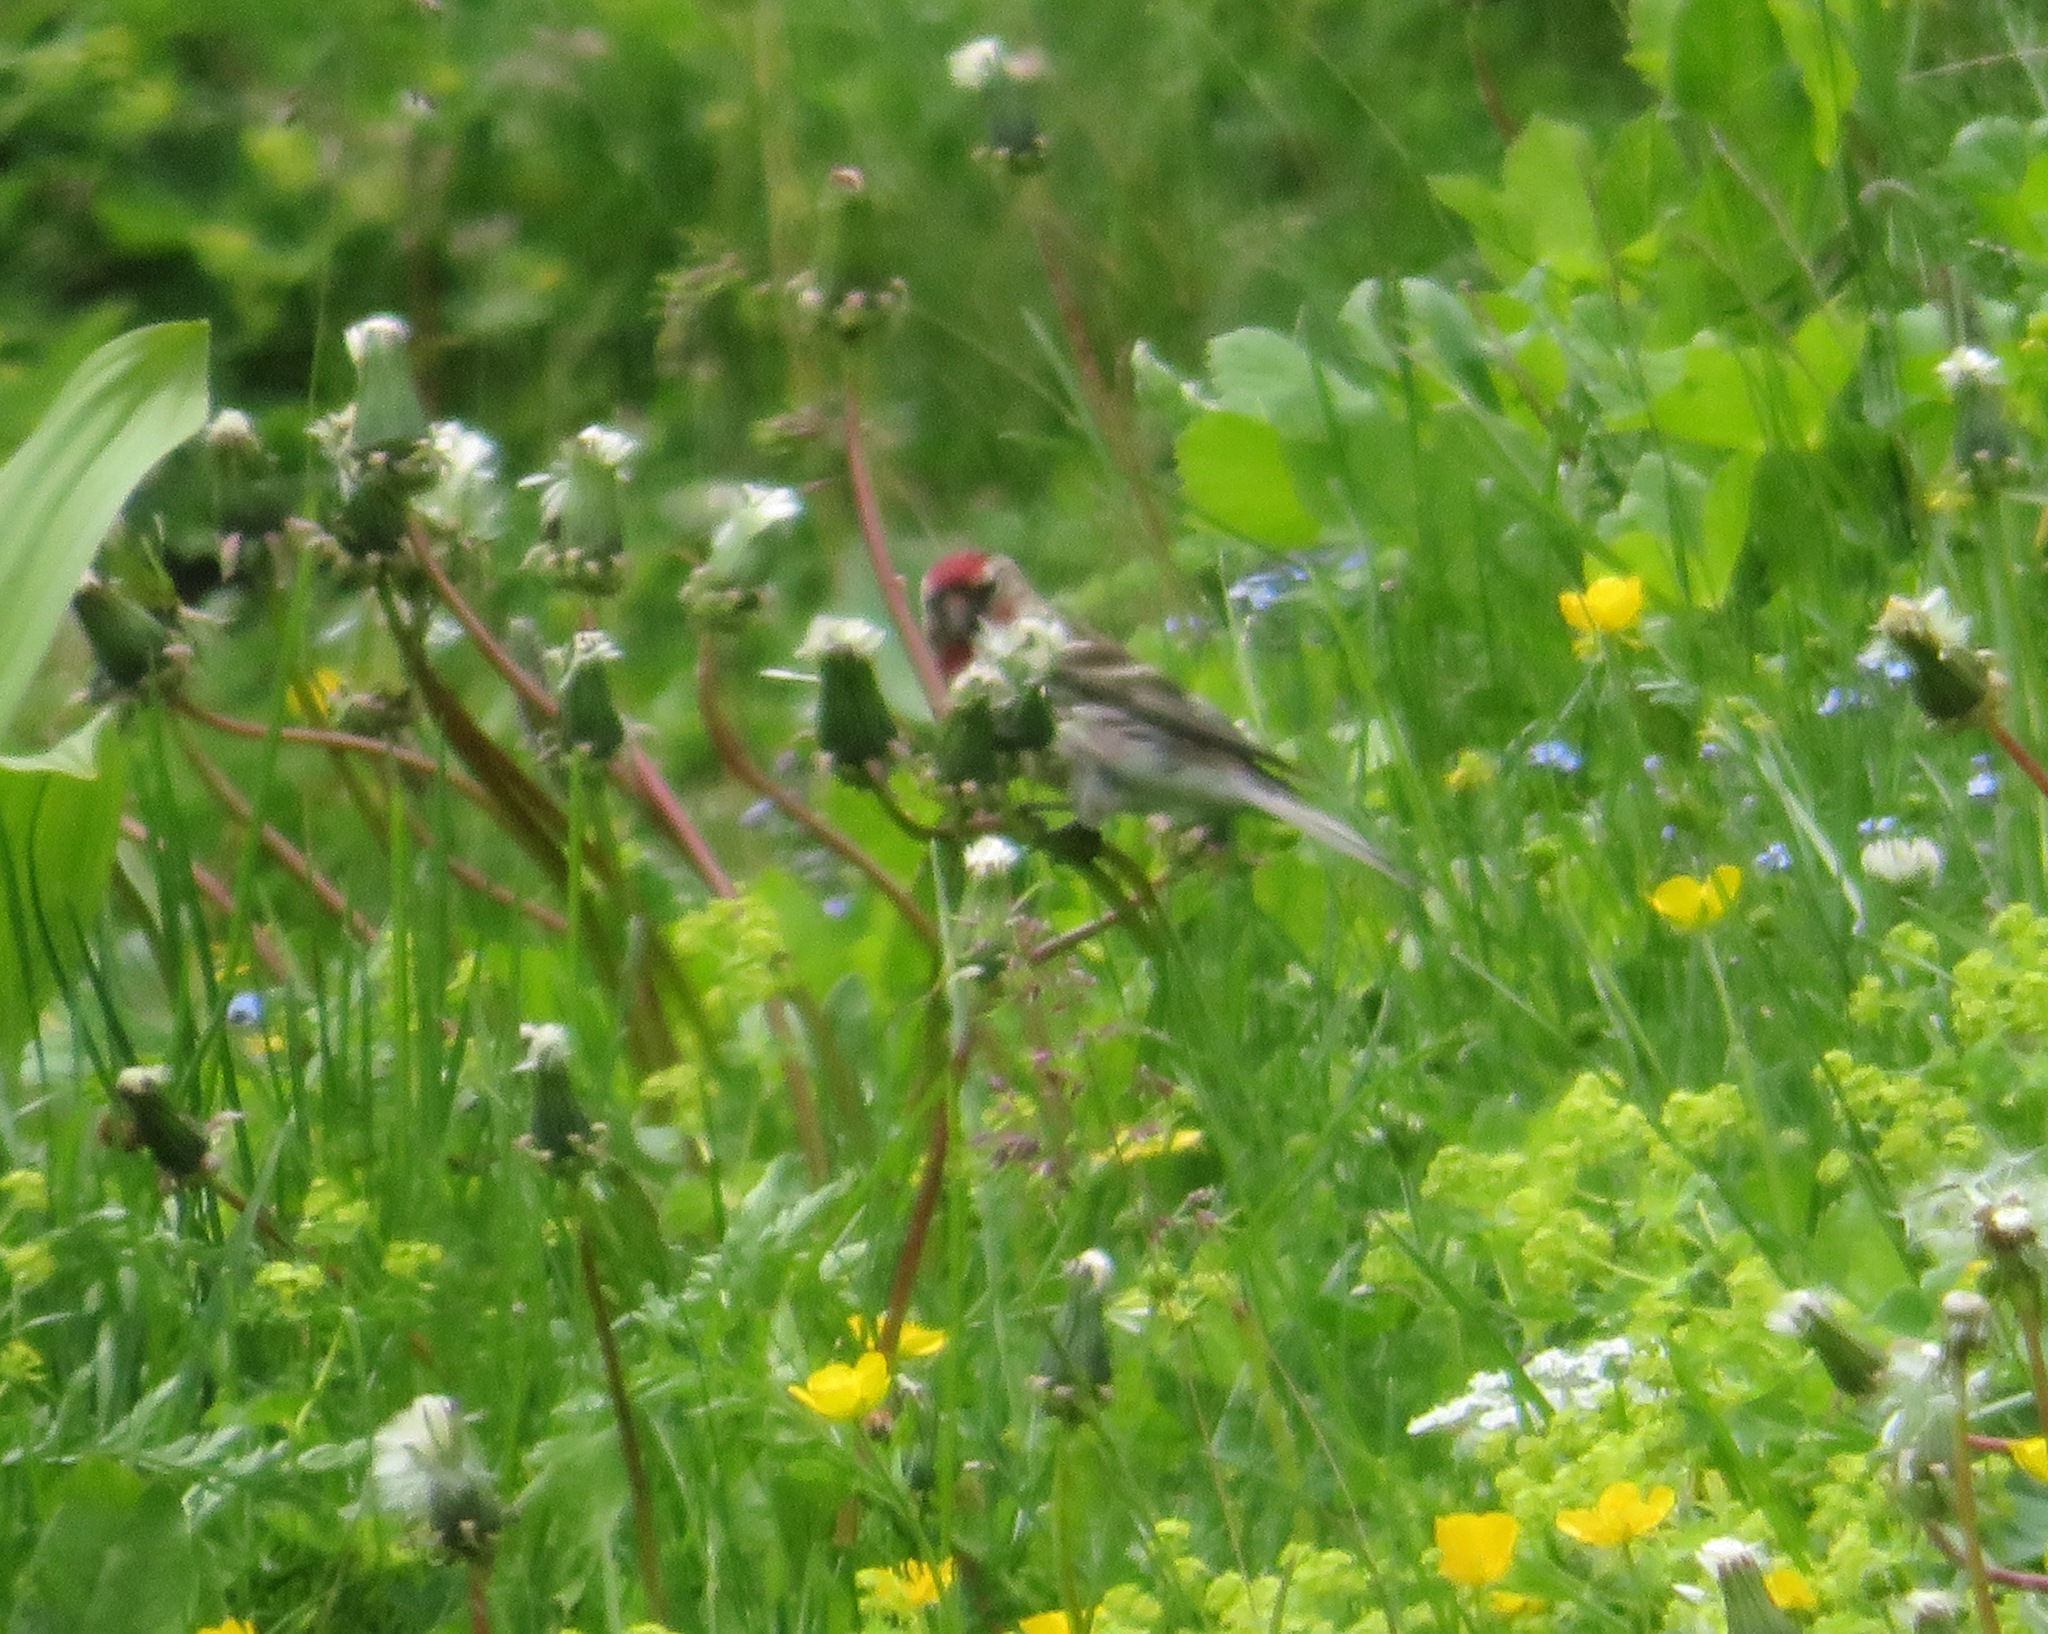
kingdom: Animalia
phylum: Chordata
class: Aves
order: Passeriformes
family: Fringillidae
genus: Acanthis
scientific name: Acanthis flammea
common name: Common redpoll
